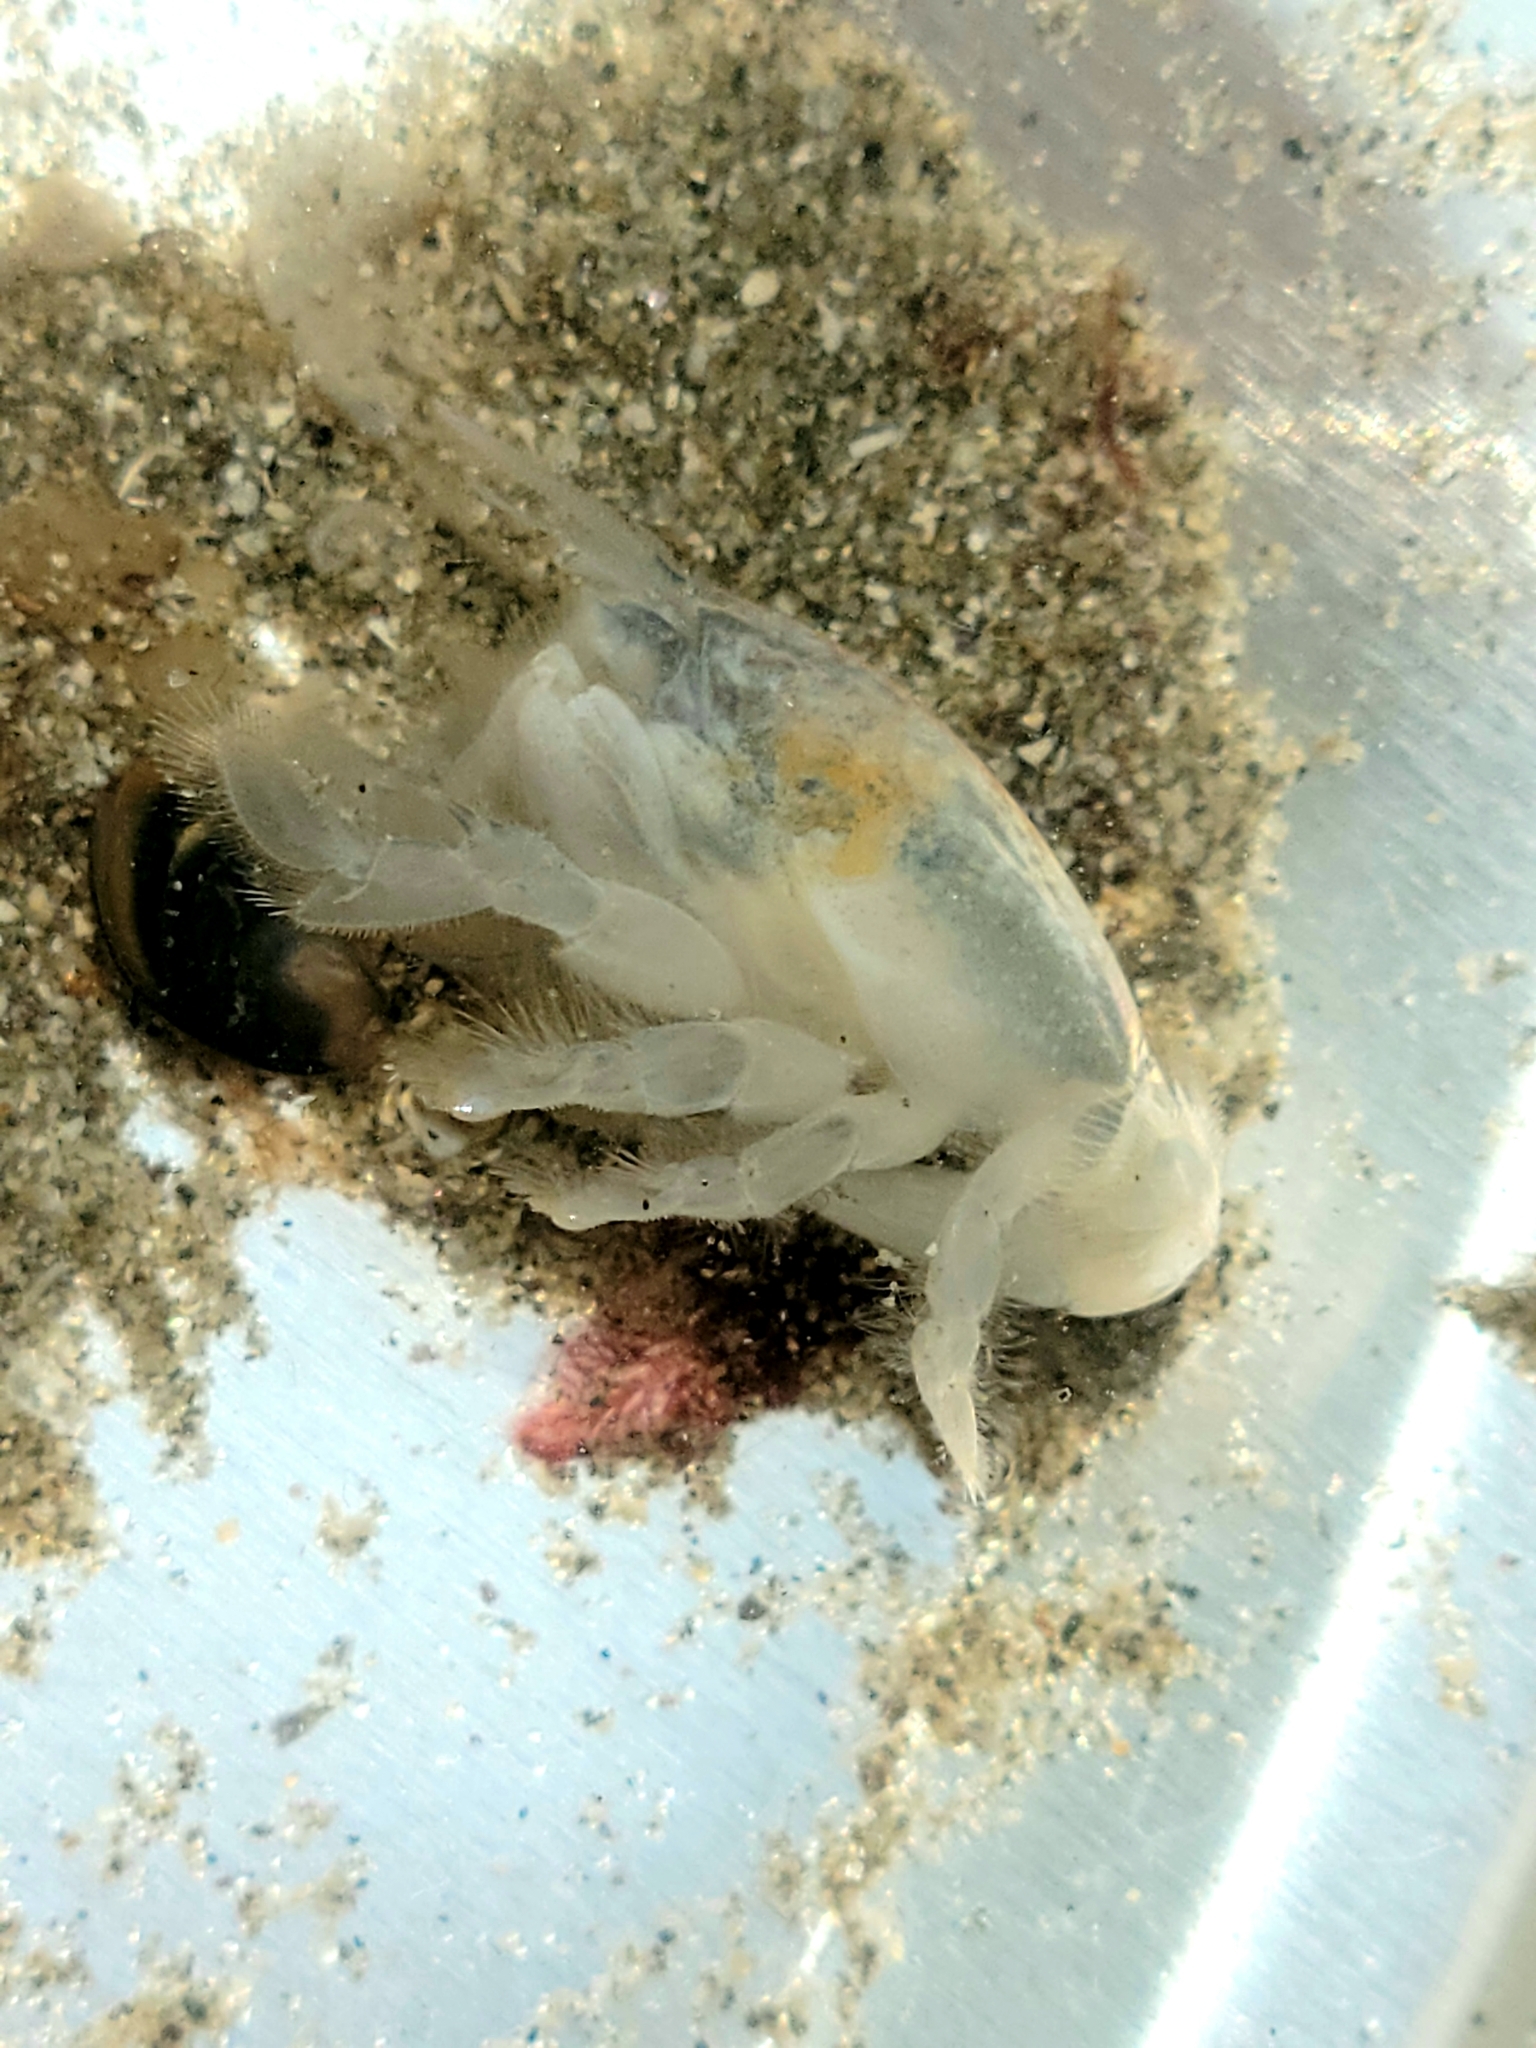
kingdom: Animalia
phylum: Arthropoda
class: Malacostraca
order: Decapoda
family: Hippidae
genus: Emerita
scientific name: Emerita analoga
